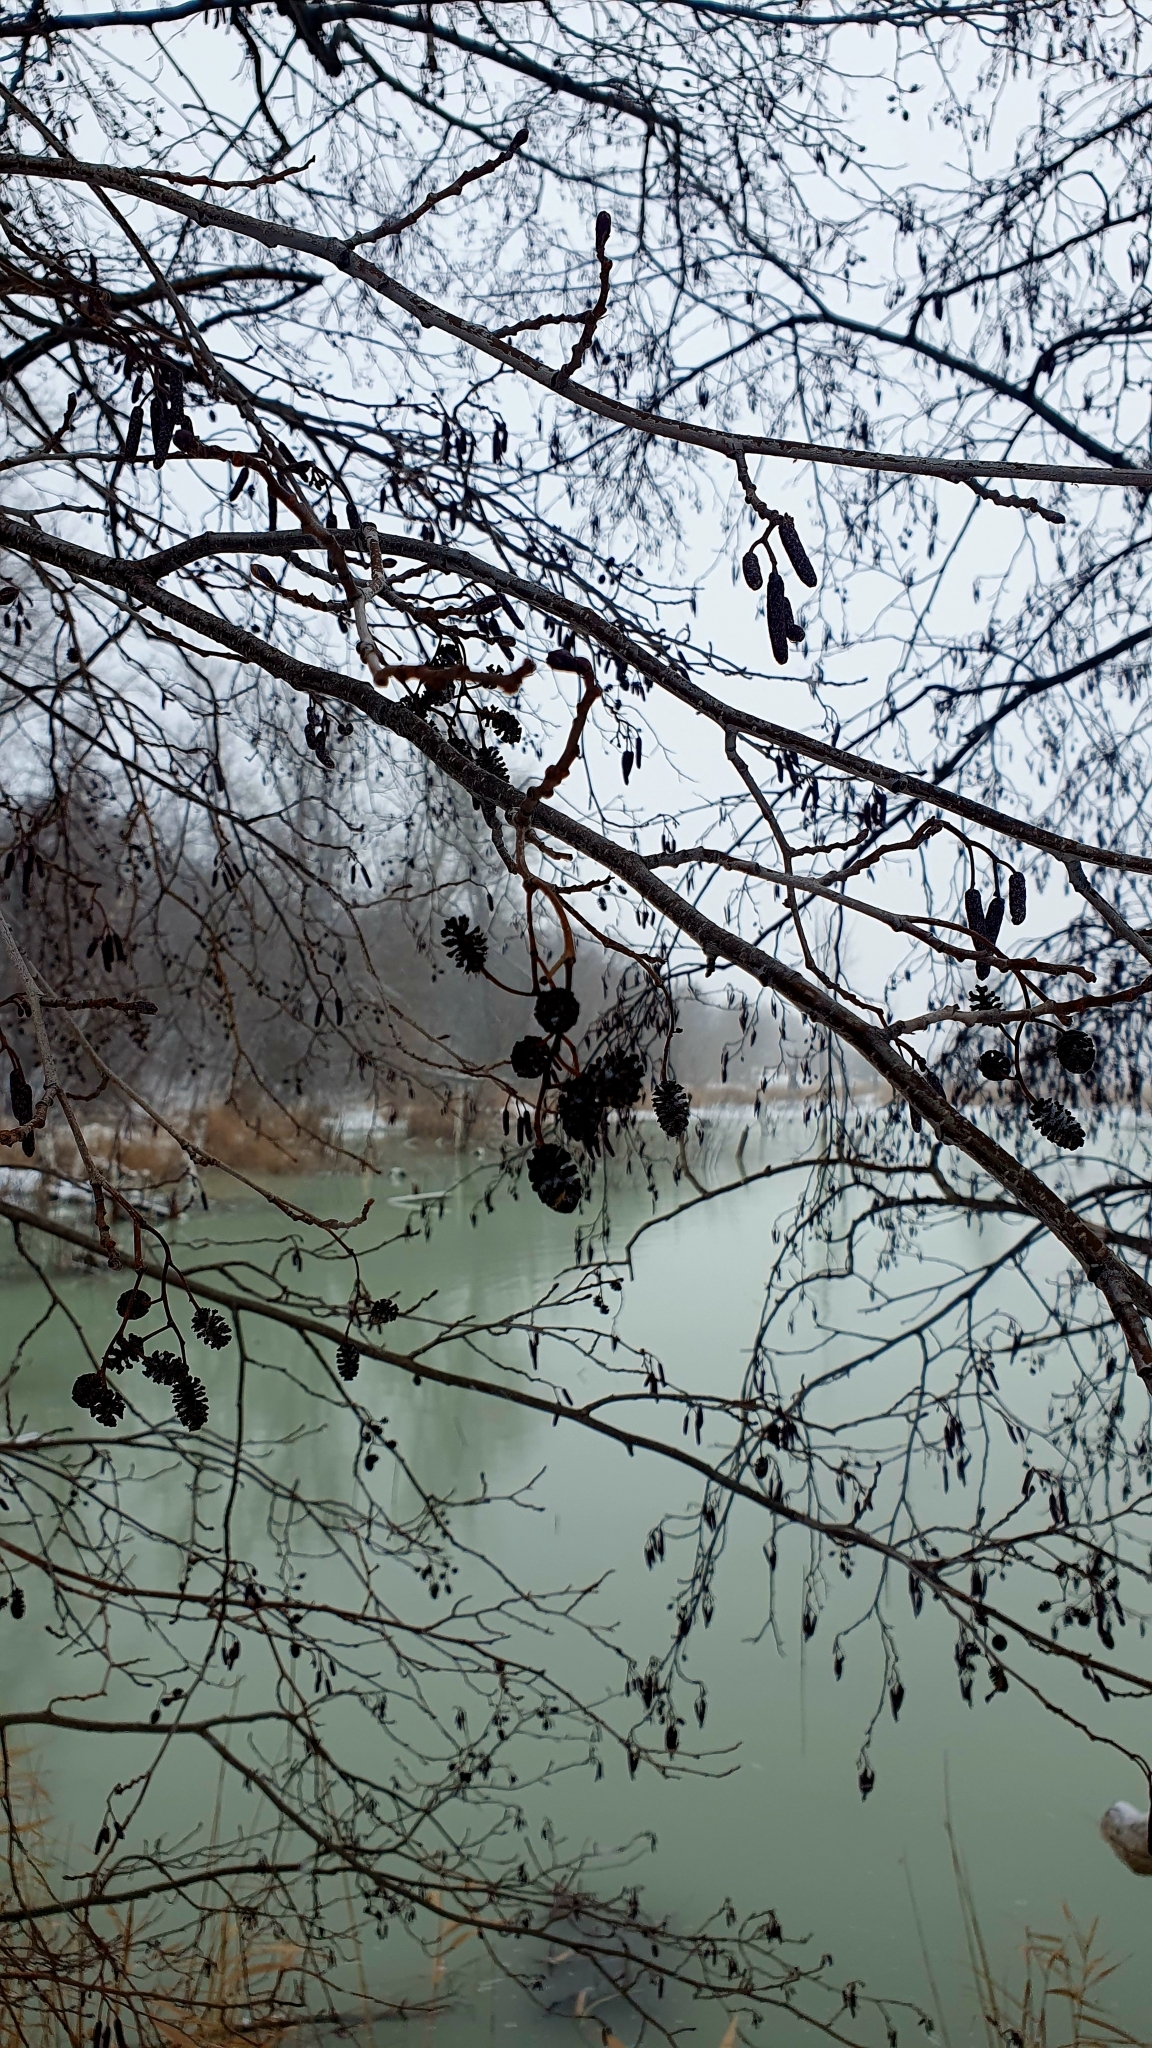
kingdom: Plantae
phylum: Tracheophyta
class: Magnoliopsida
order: Fagales
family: Betulaceae
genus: Alnus
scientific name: Alnus glutinosa
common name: Black alder
